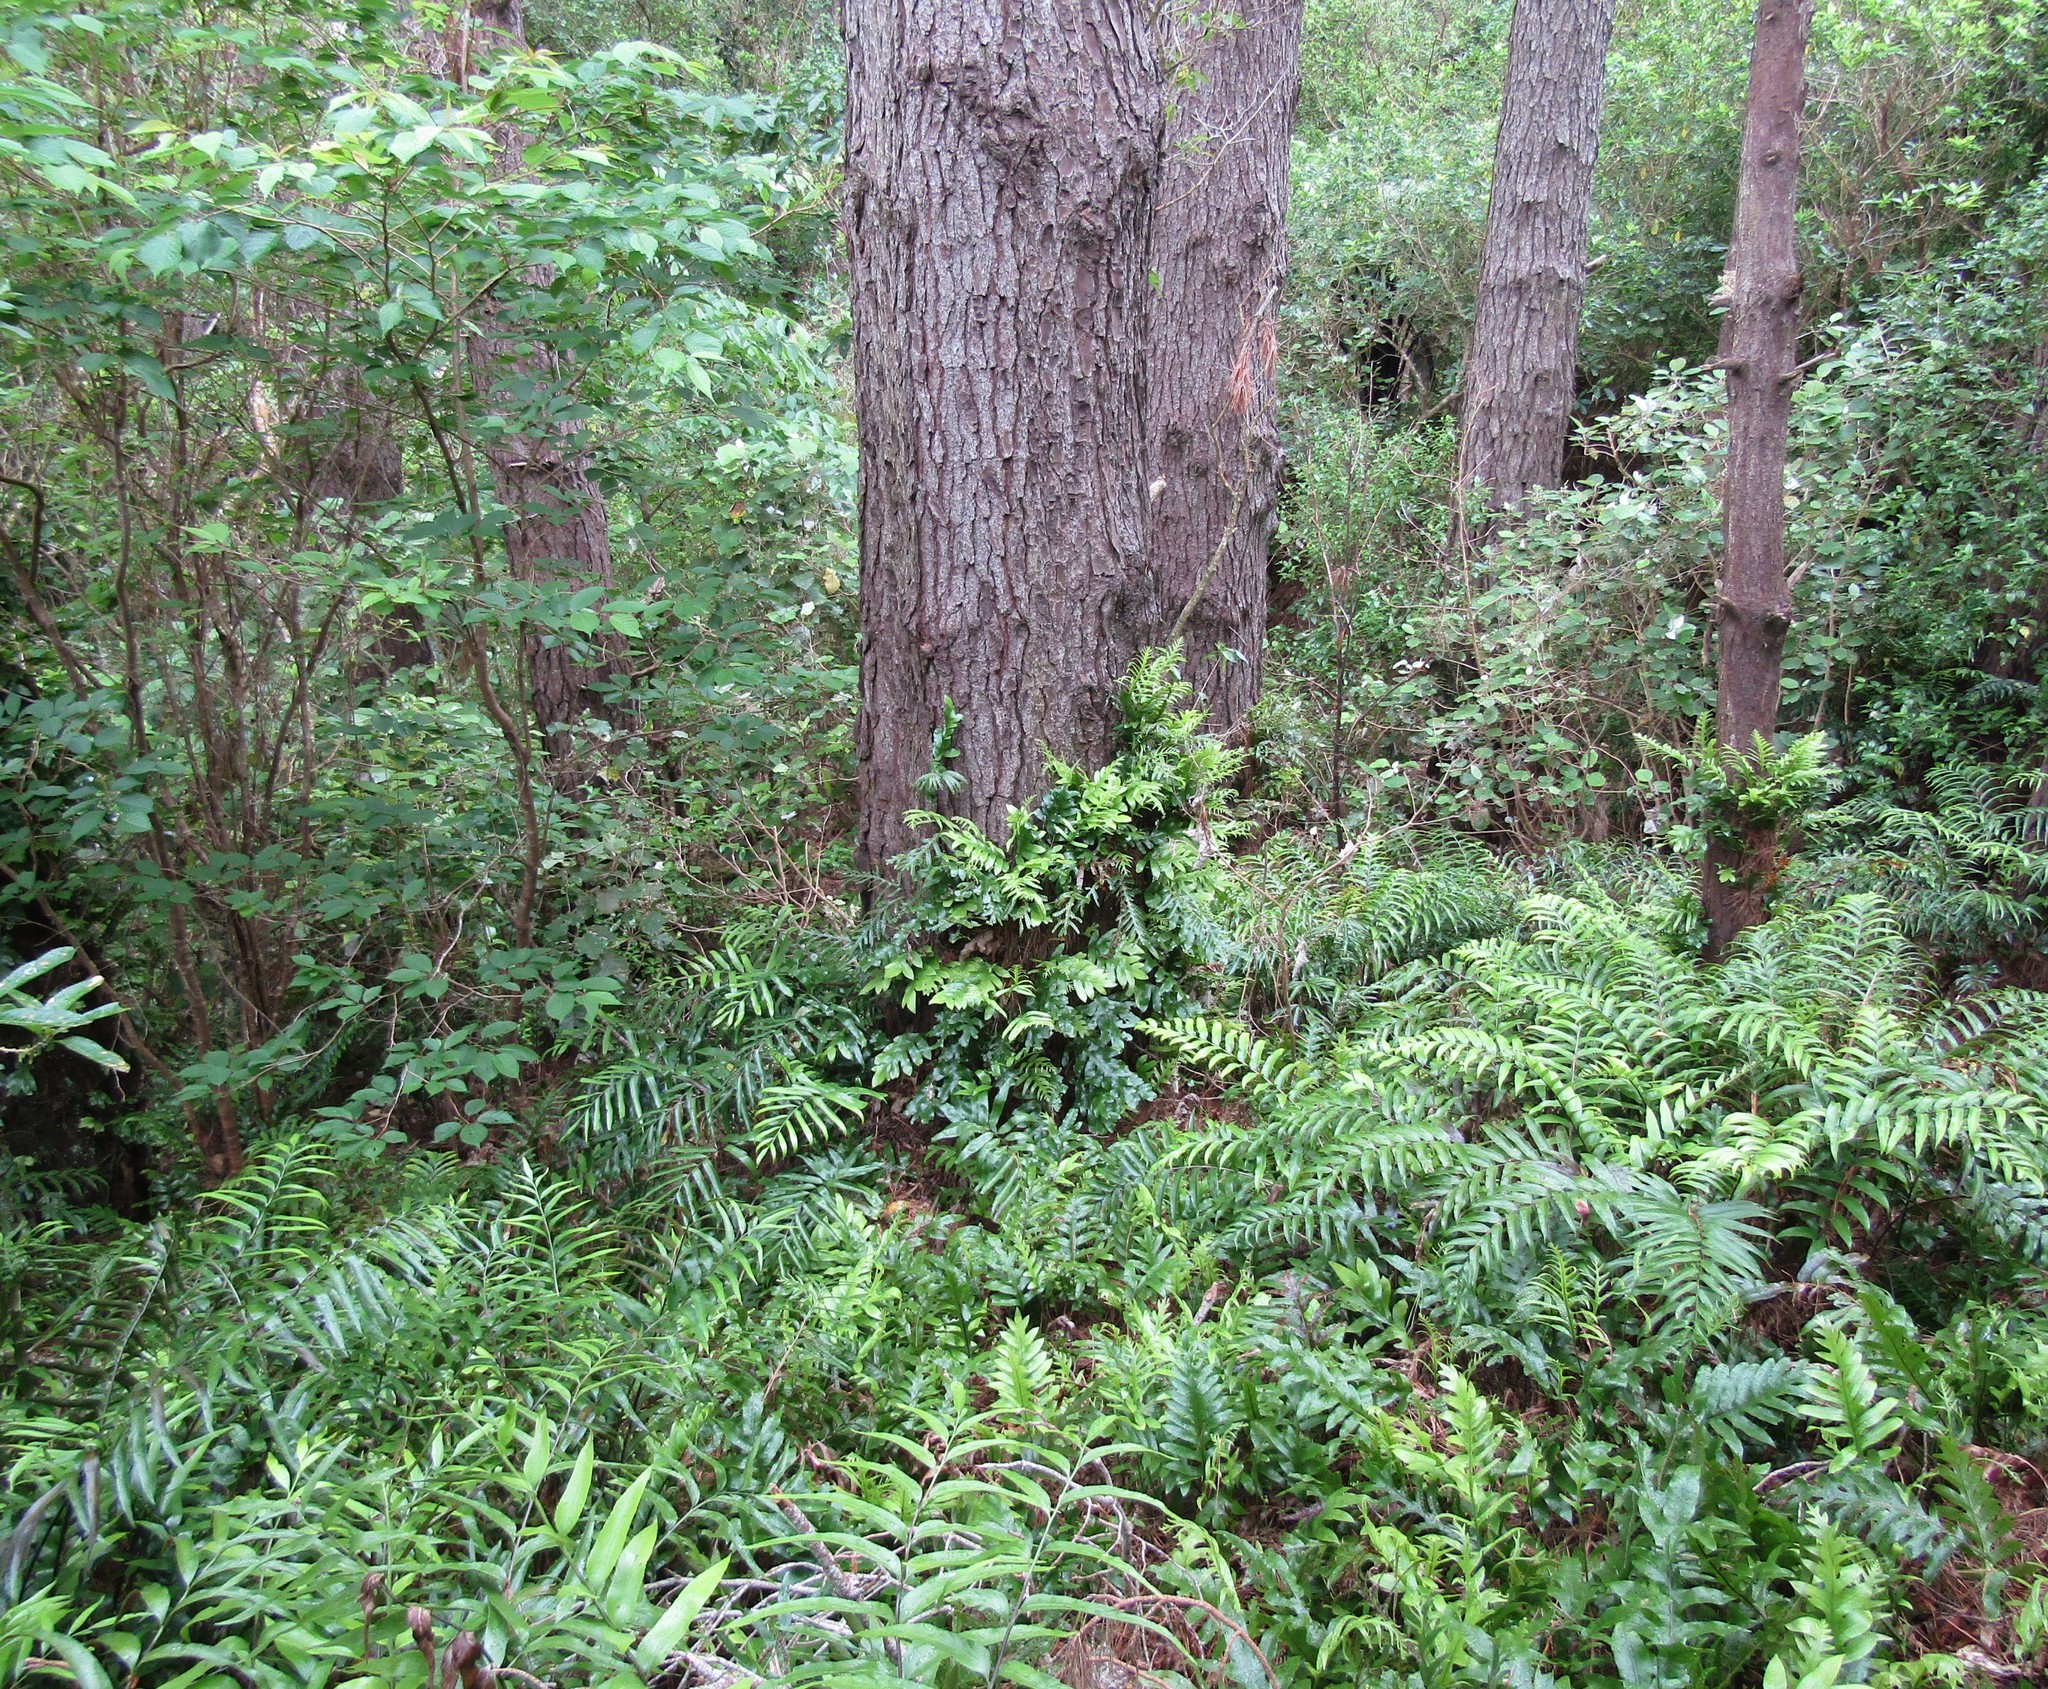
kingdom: Plantae
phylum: Tracheophyta
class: Polypodiopsida
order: Polypodiales
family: Polypodiaceae
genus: Lecanopteris
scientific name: Lecanopteris pustulata
